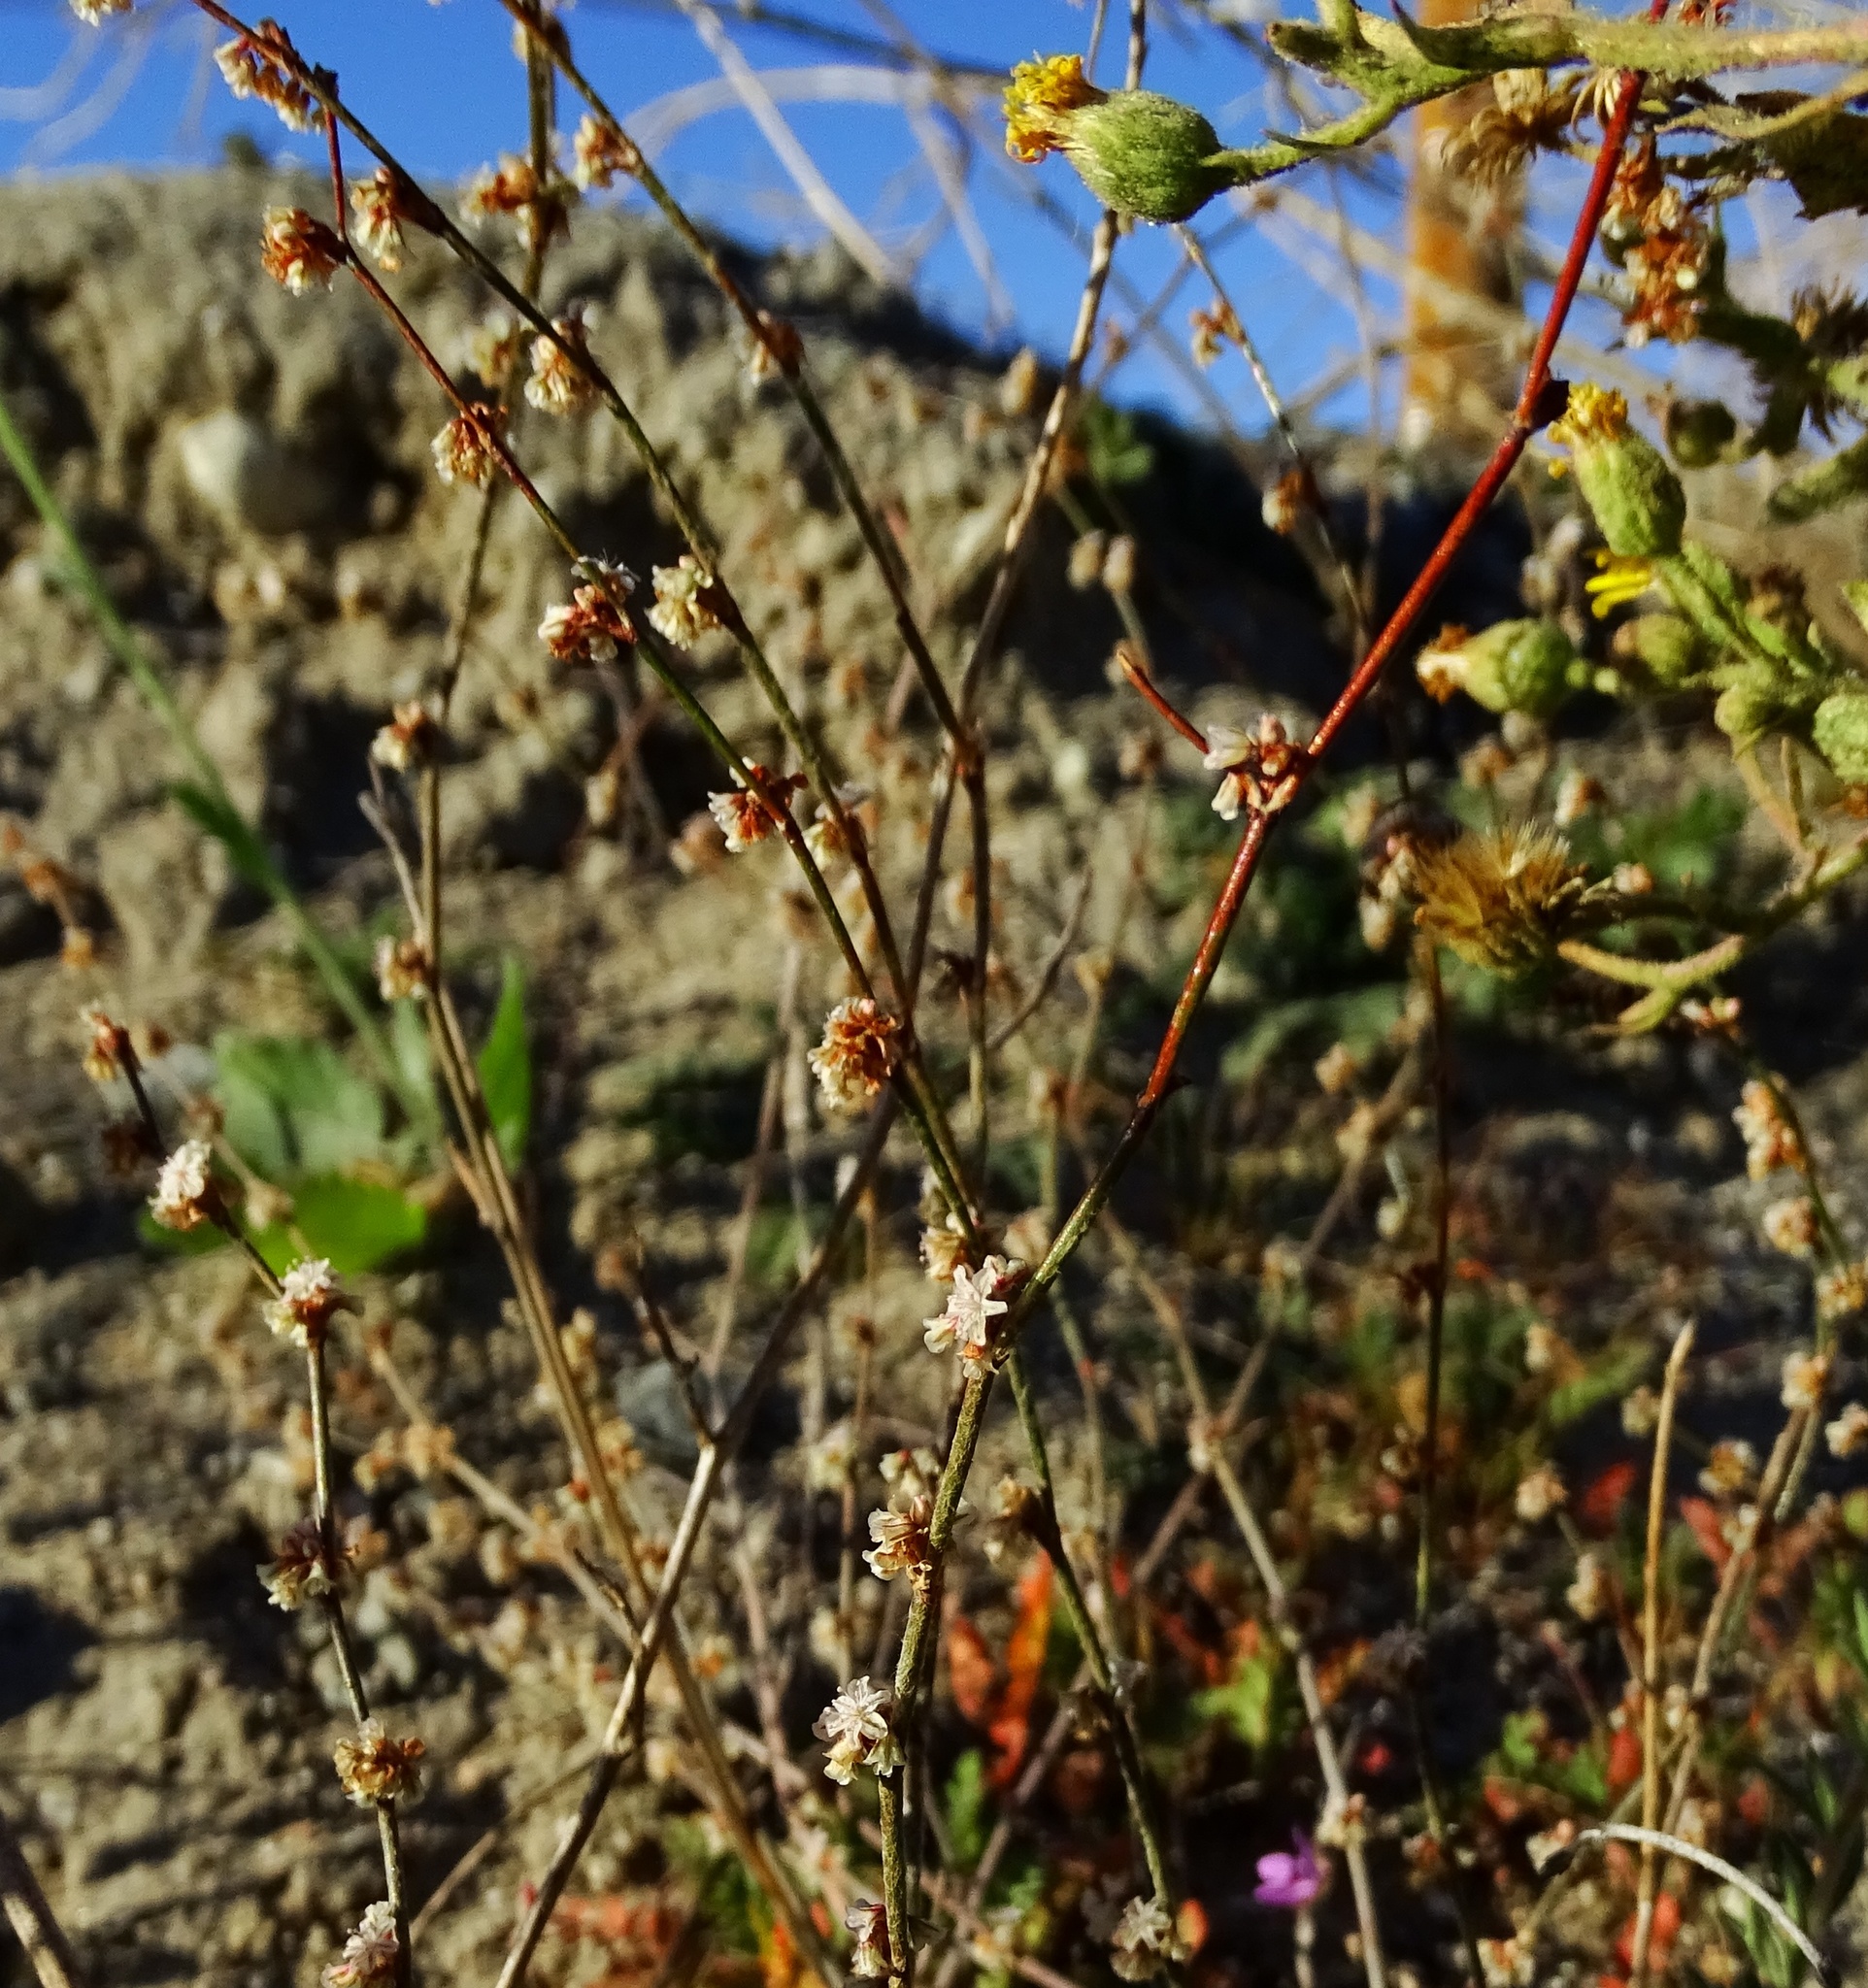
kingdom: Plantae
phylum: Tracheophyta
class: Magnoliopsida
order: Caryophyllales
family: Polygonaceae
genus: Eriogonum
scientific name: Eriogonum gracile
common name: Slender woolly buckwheat
